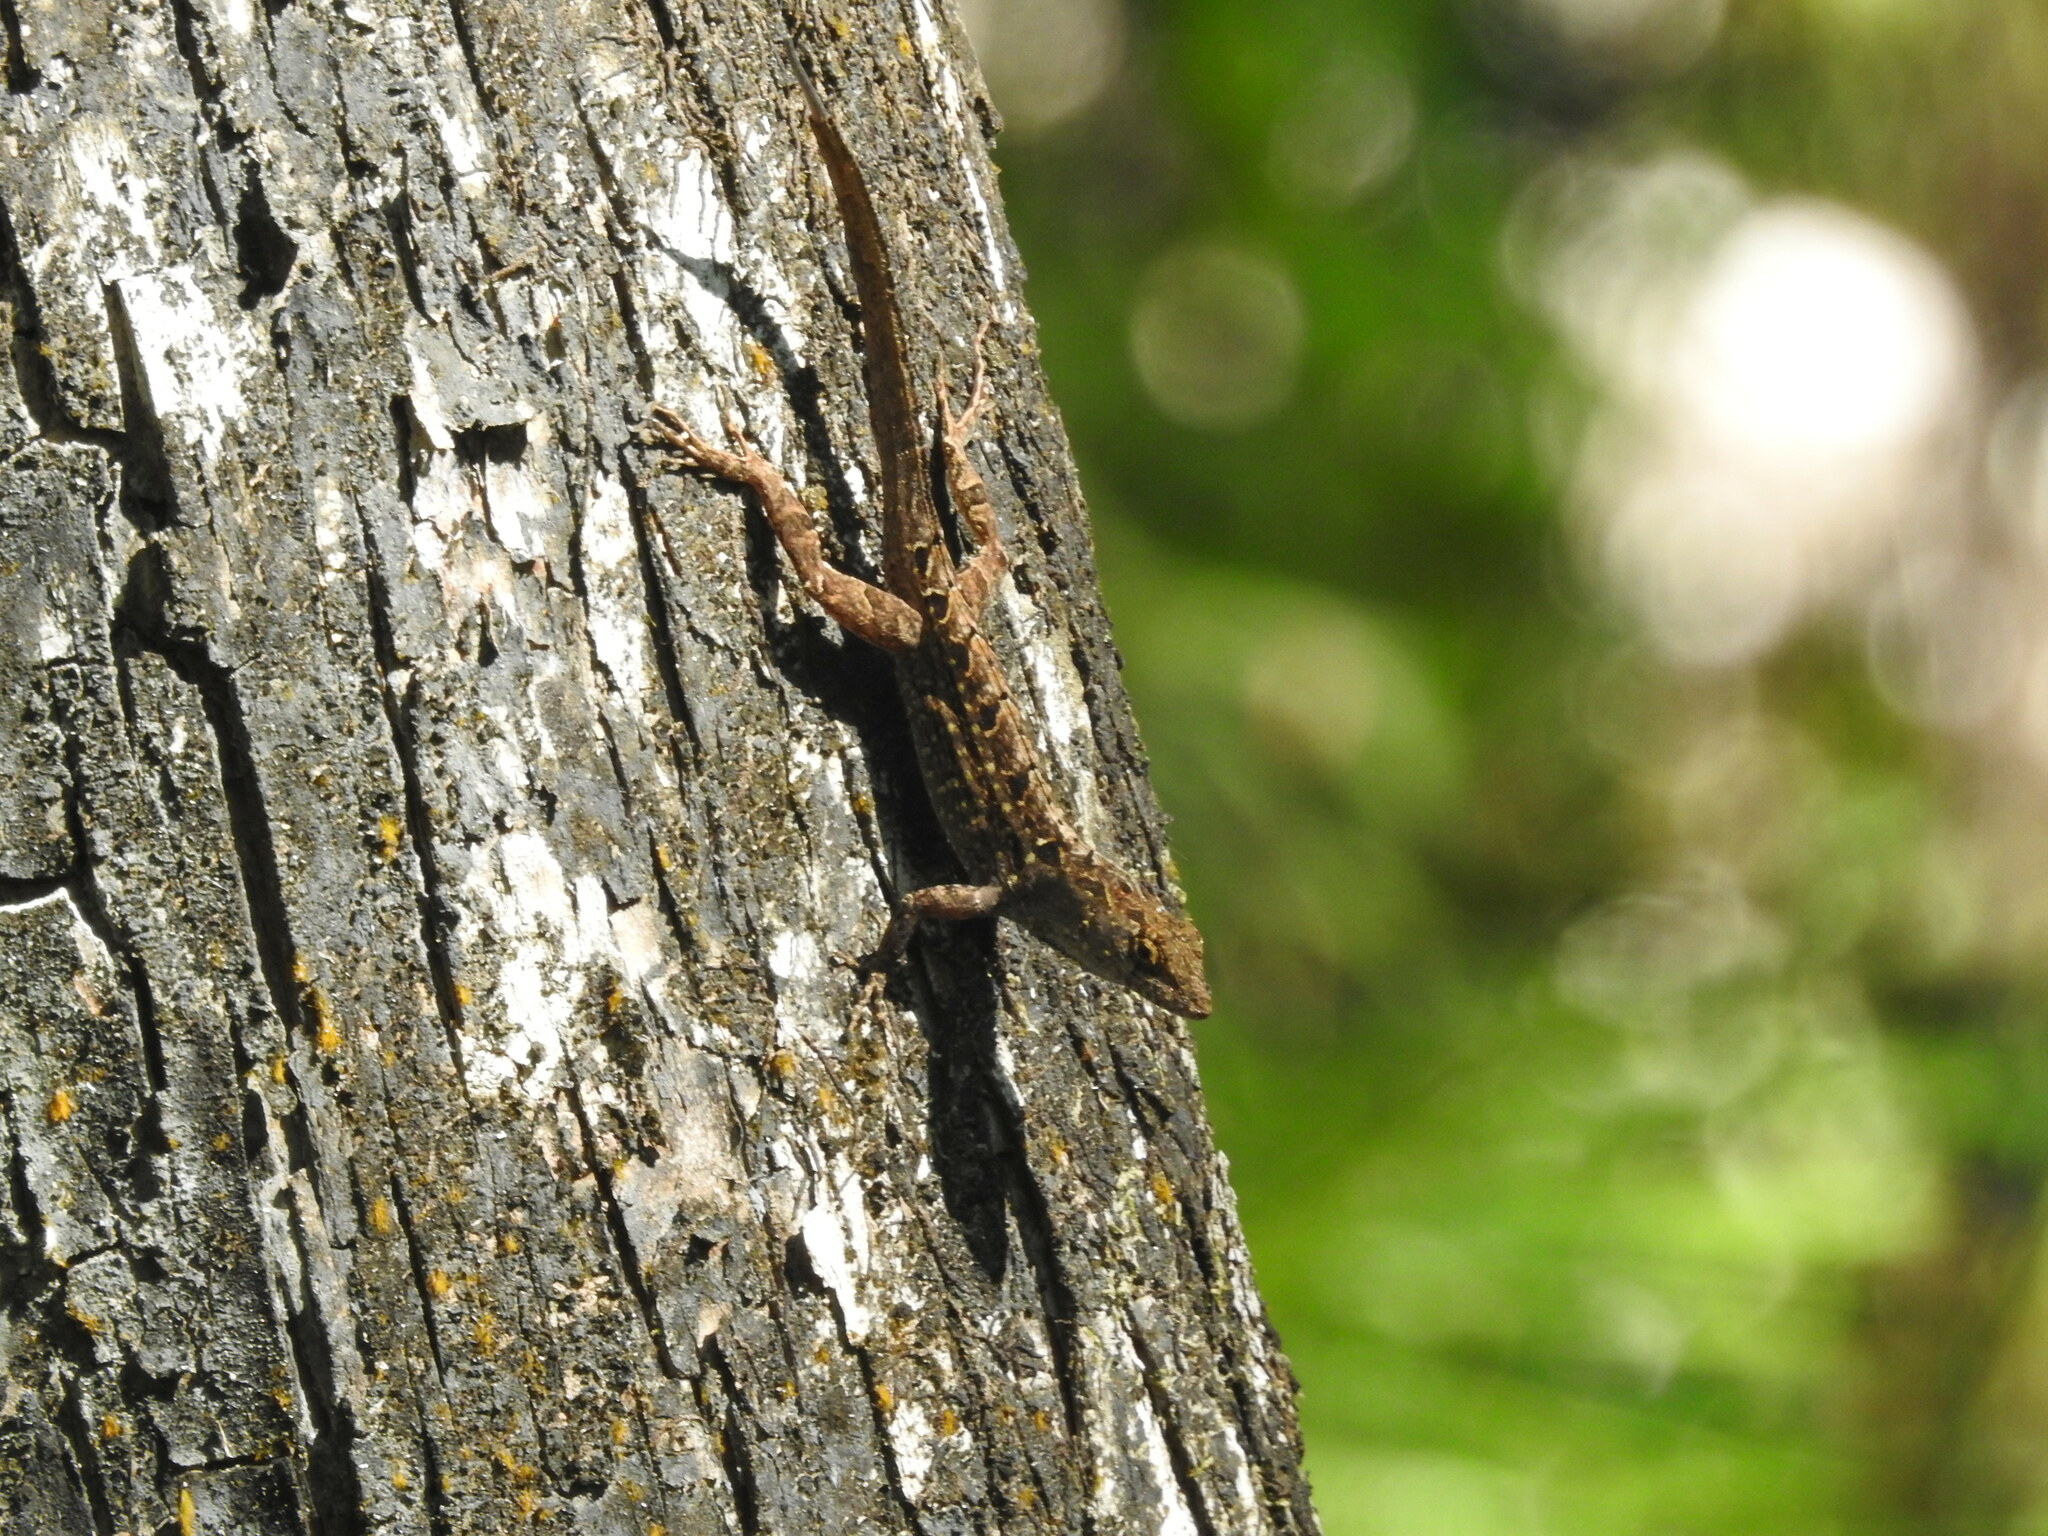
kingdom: Animalia
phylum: Chordata
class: Squamata
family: Dactyloidae
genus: Anolis
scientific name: Anolis sagrei
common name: Brown anole
